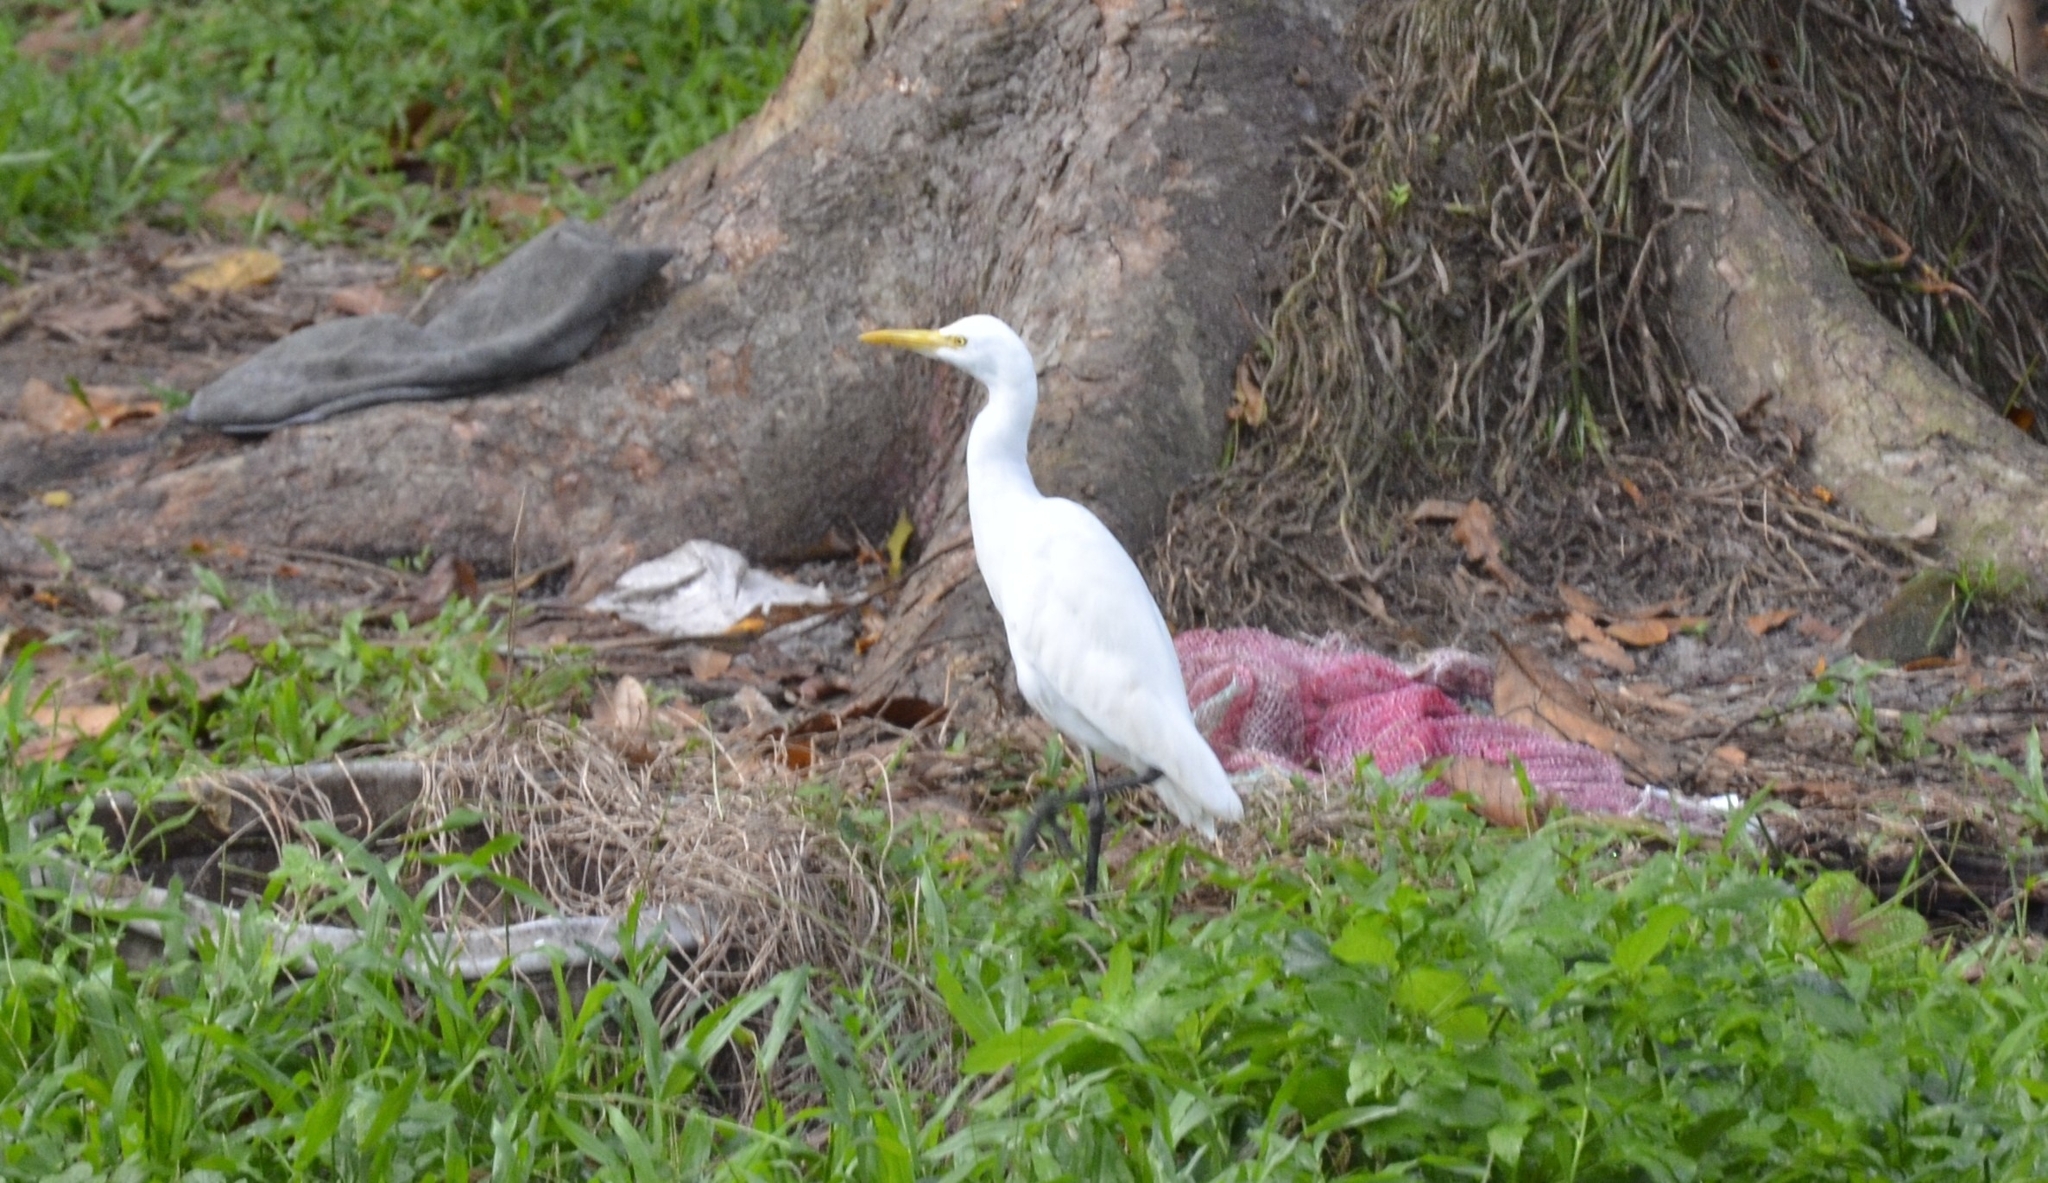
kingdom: Animalia
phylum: Chordata
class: Aves
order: Pelecaniformes
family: Ardeidae
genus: Bubulcus
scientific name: Bubulcus coromandus
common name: Eastern cattle egret
